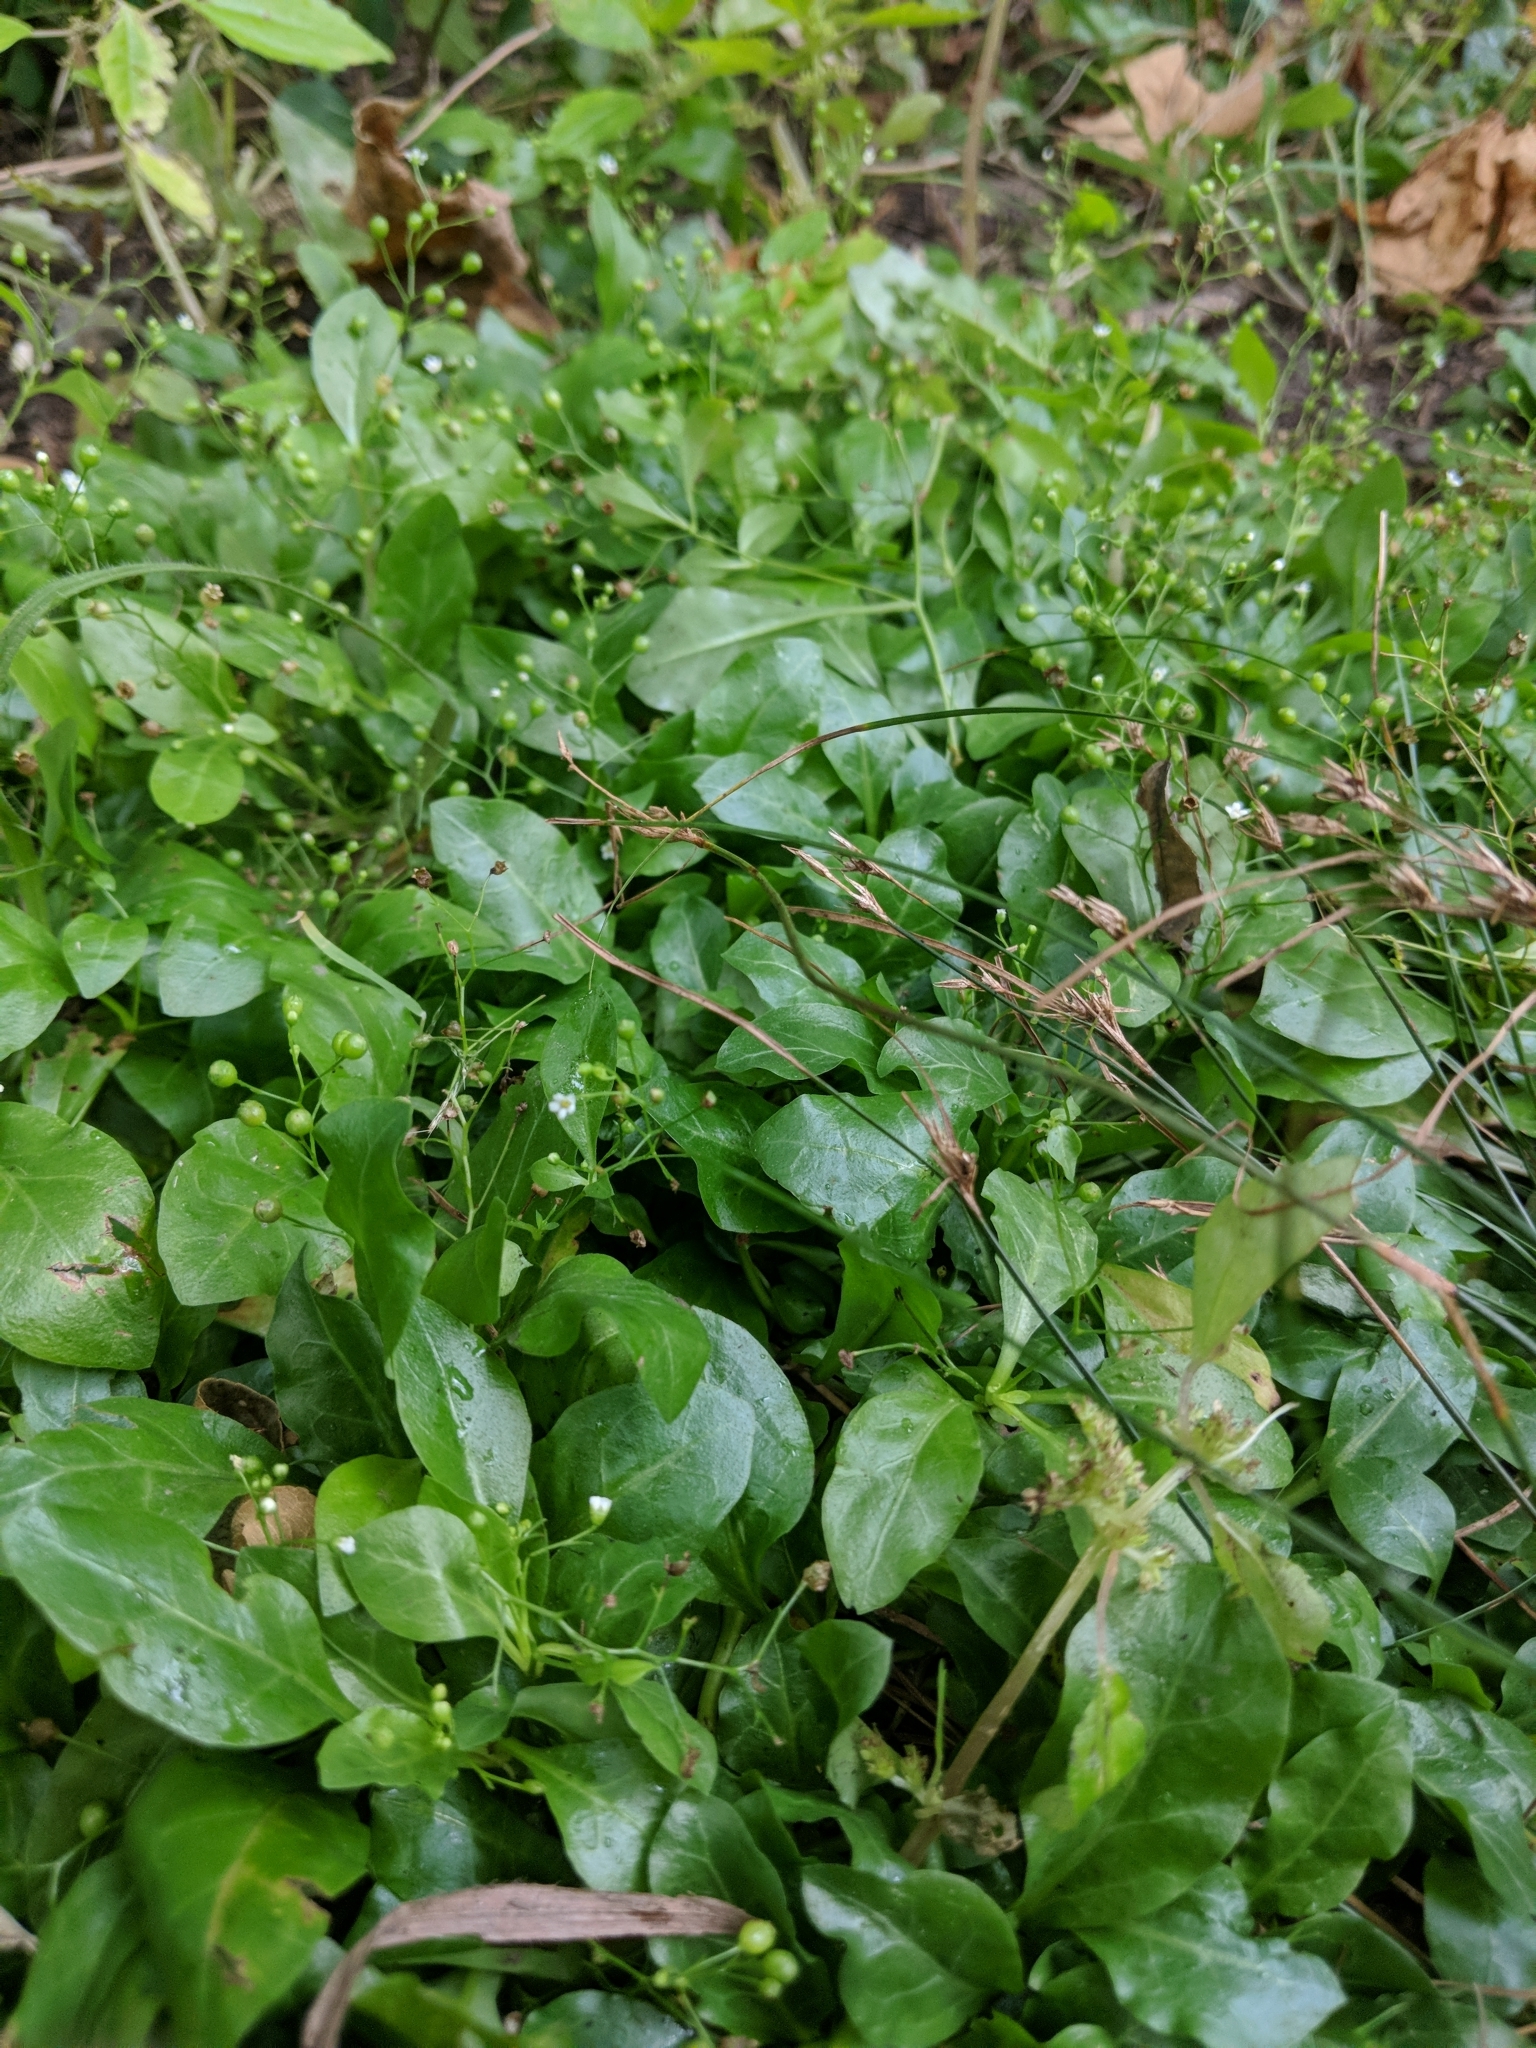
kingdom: Plantae
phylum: Tracheophyta
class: Magnoliopsida
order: Ericales
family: Primulaceae
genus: Samolus
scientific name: Samolus parviflorus
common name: False water pimpernel
